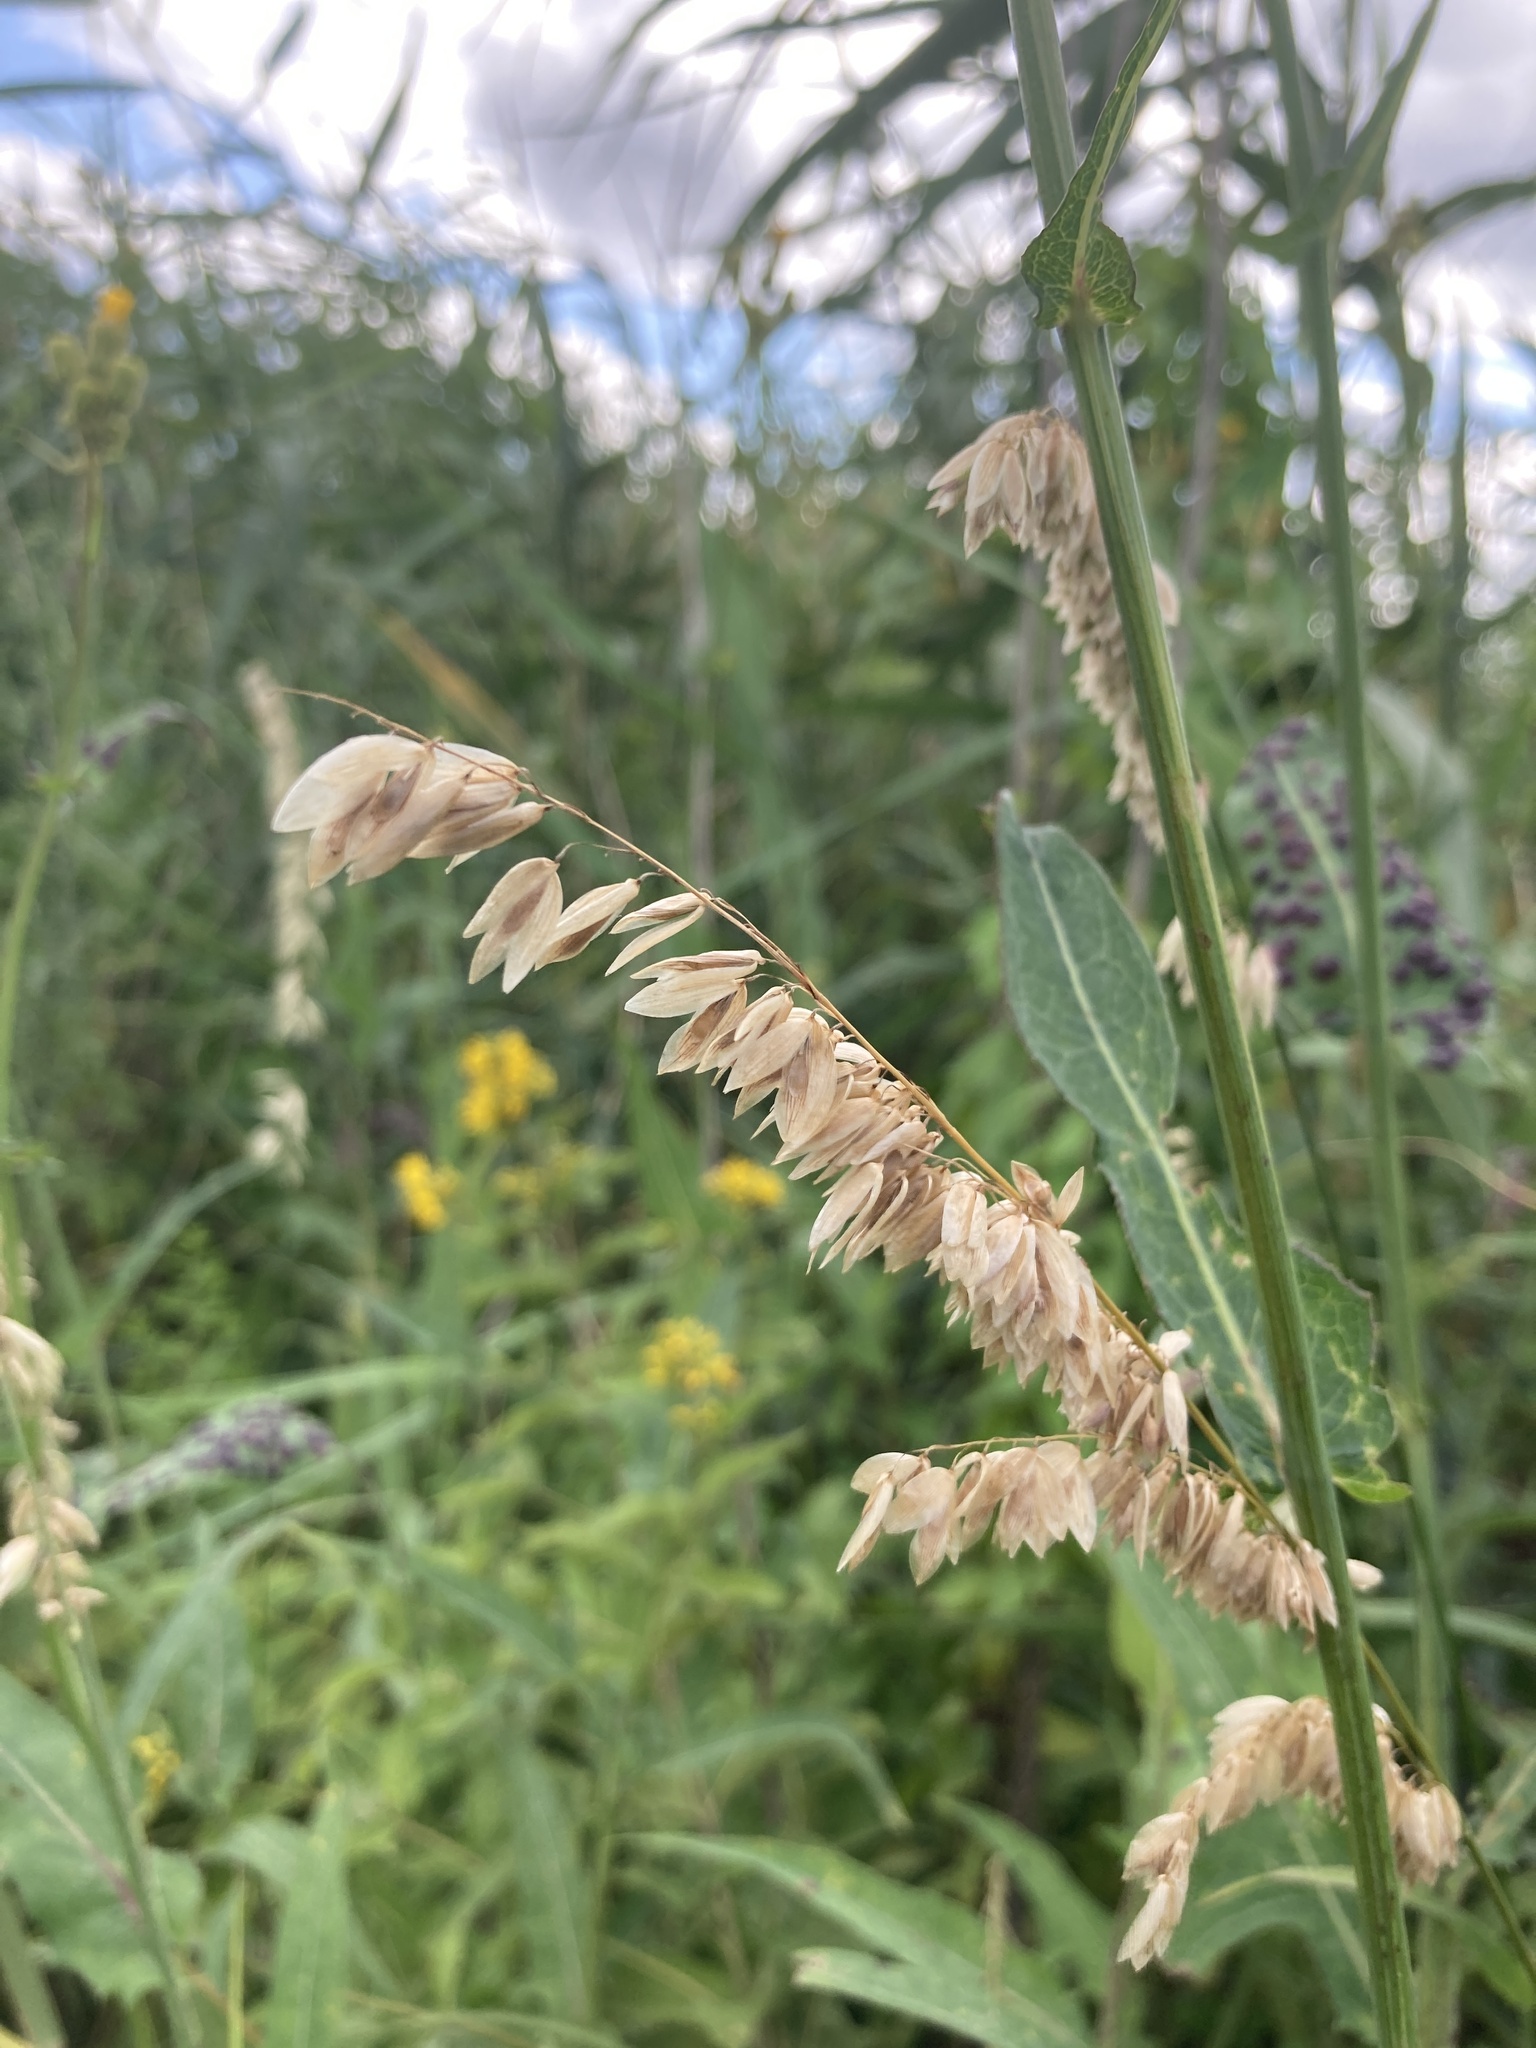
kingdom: Plantae
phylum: Tracheophyta
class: Liliopsida
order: Poales
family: Poaceae
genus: Melica
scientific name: Melica altissima
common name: Siberian melicgrass
